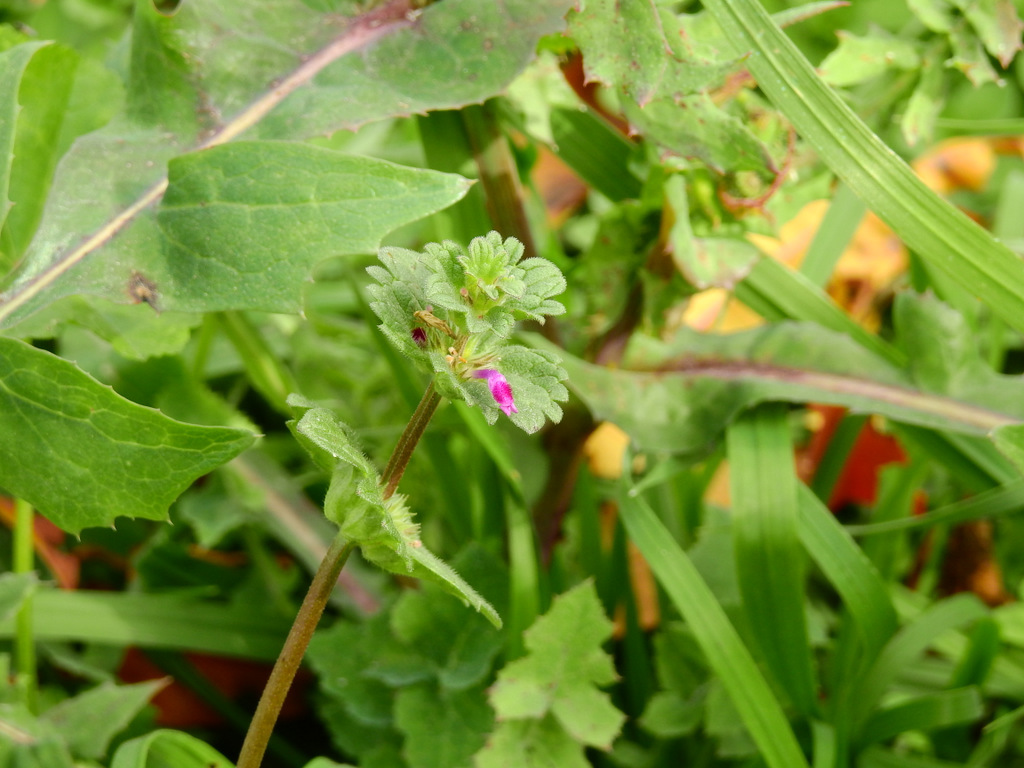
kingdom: Plantae
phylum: Tracheophyta
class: Magnoliopsida
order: Lamiales
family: Lamiaceae
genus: Lamium
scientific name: Lamium amplexicaule
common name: Henbit dead-nettle
